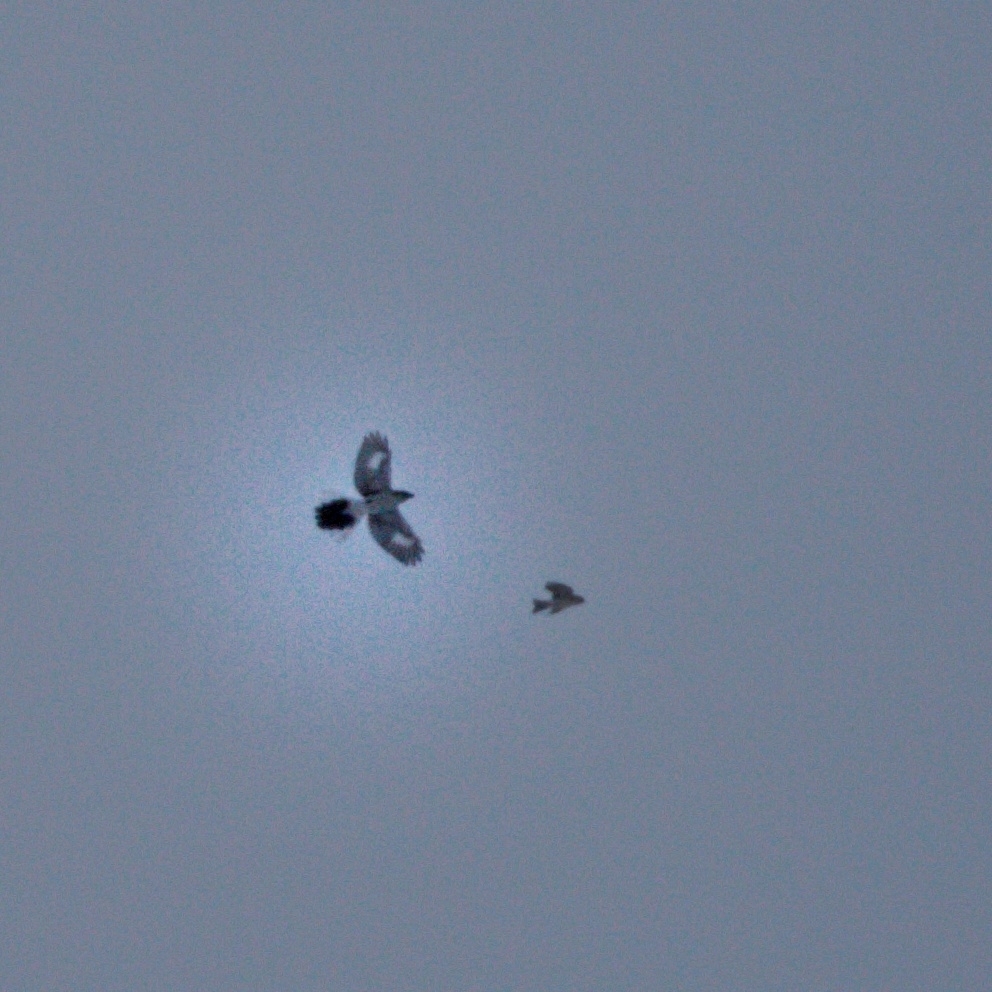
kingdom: Animalia
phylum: Chordata
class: Aves
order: Passeriformes
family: Laniidae
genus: Lanius
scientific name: Lanius borealis
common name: Northern shrike
